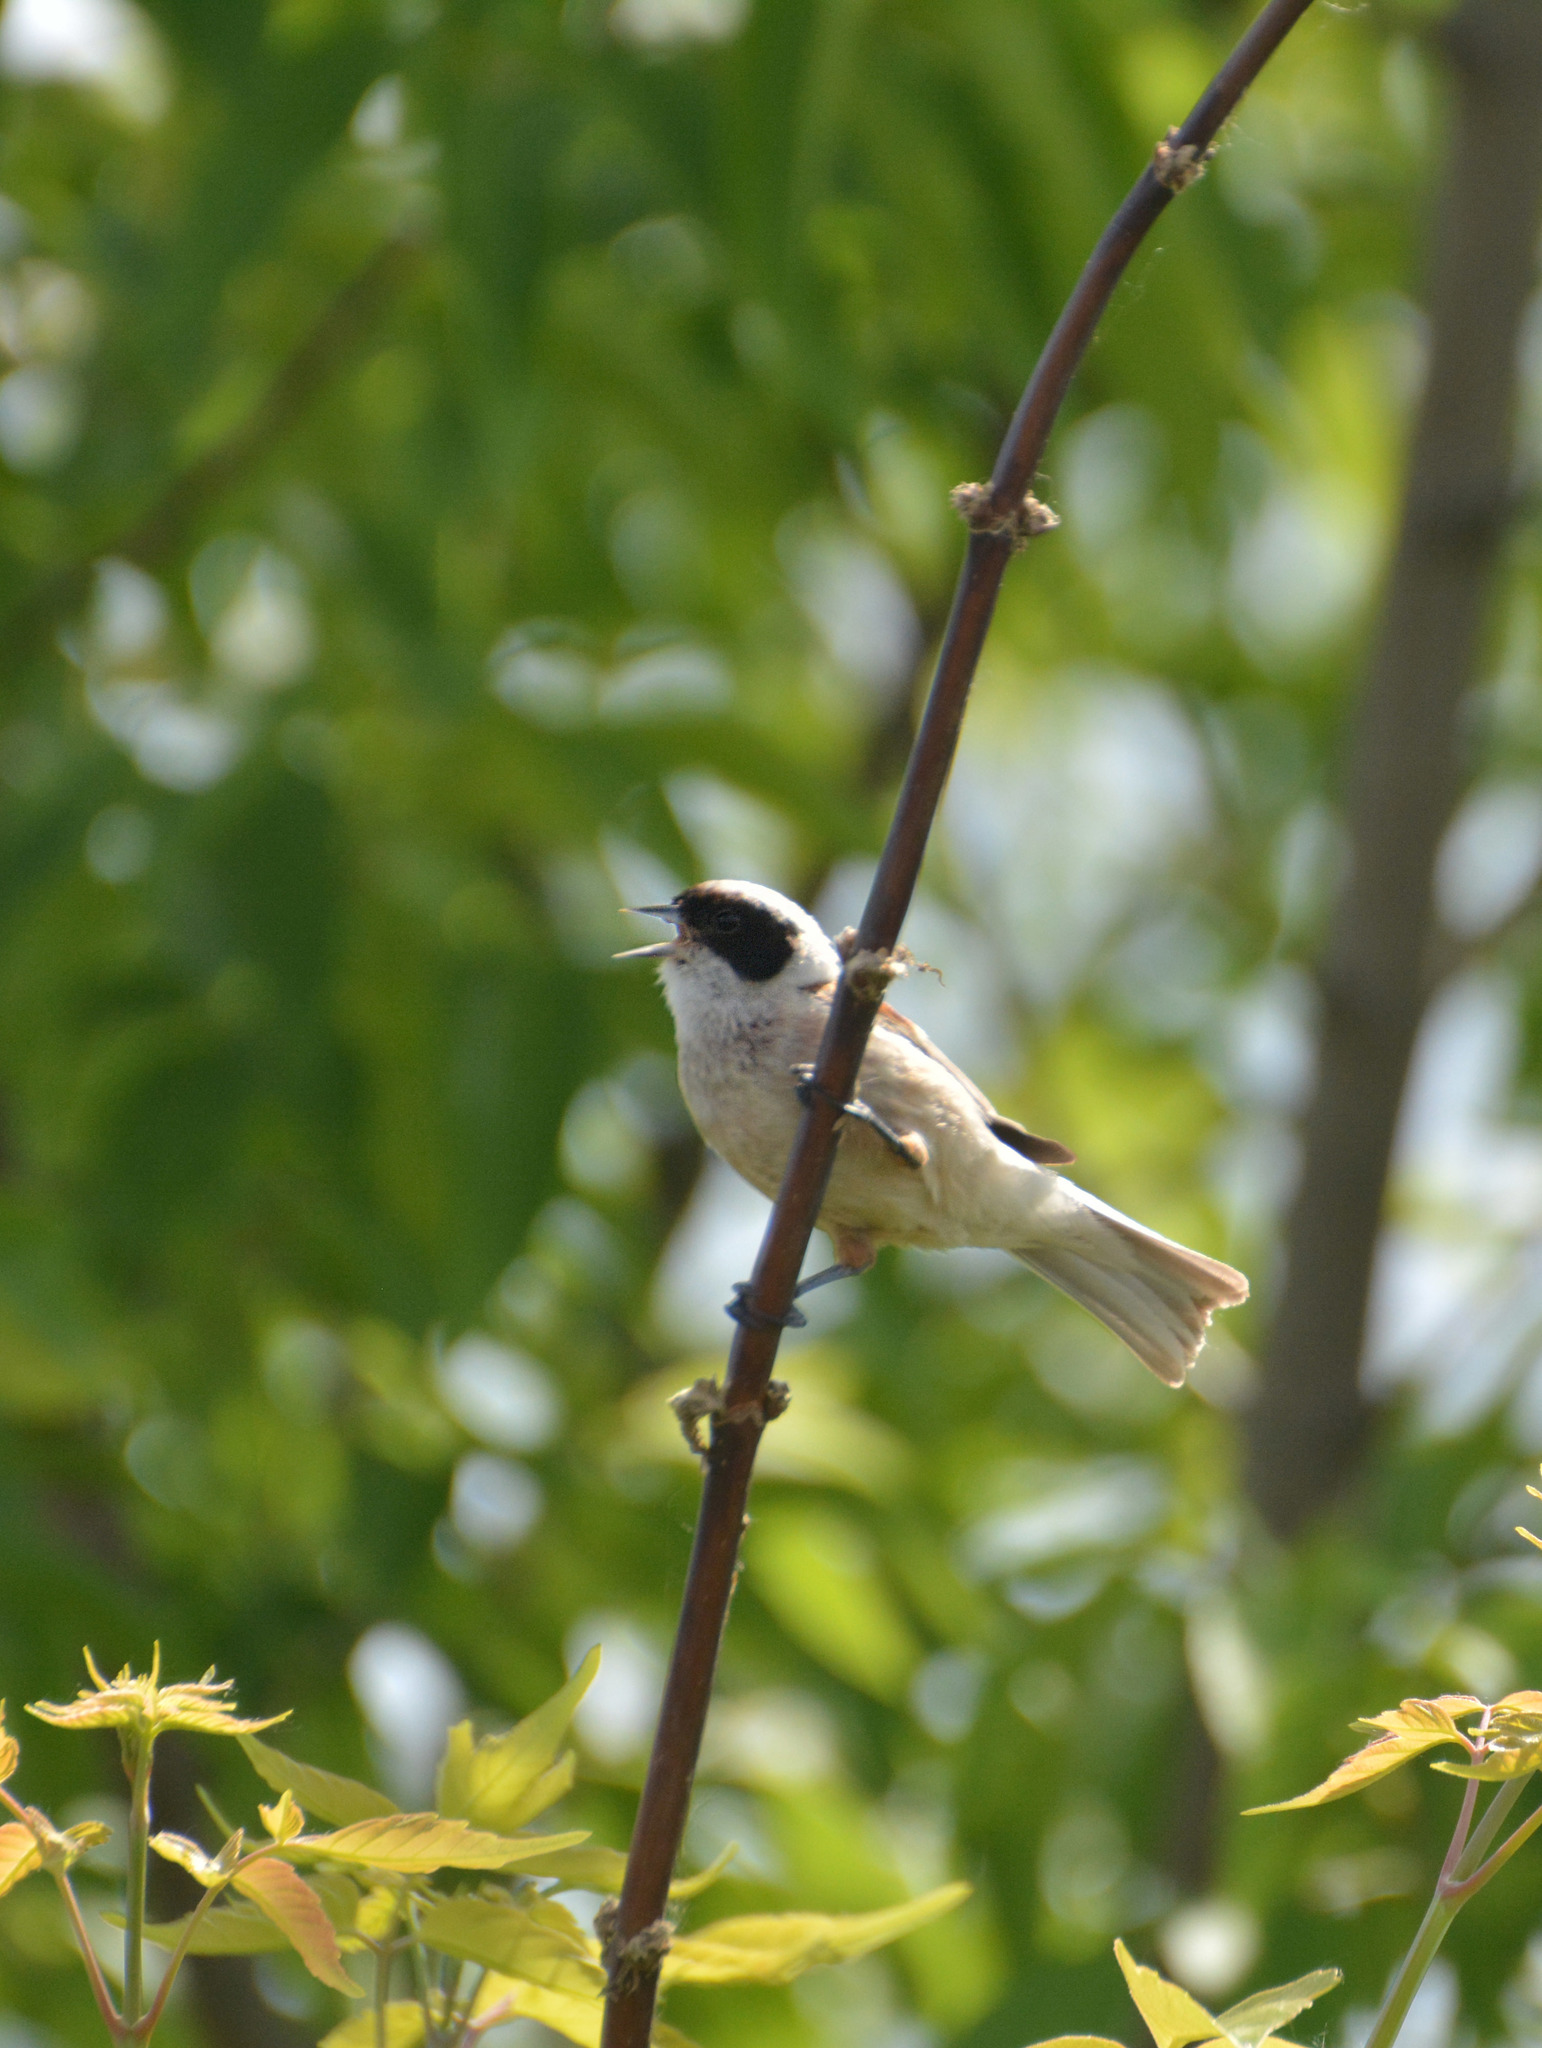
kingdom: Animalia
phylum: Chordata
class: Aves
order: Passeriformes
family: Remizidae
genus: Remiz
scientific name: Remiz pendulinus
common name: Eurasian penduline tit
